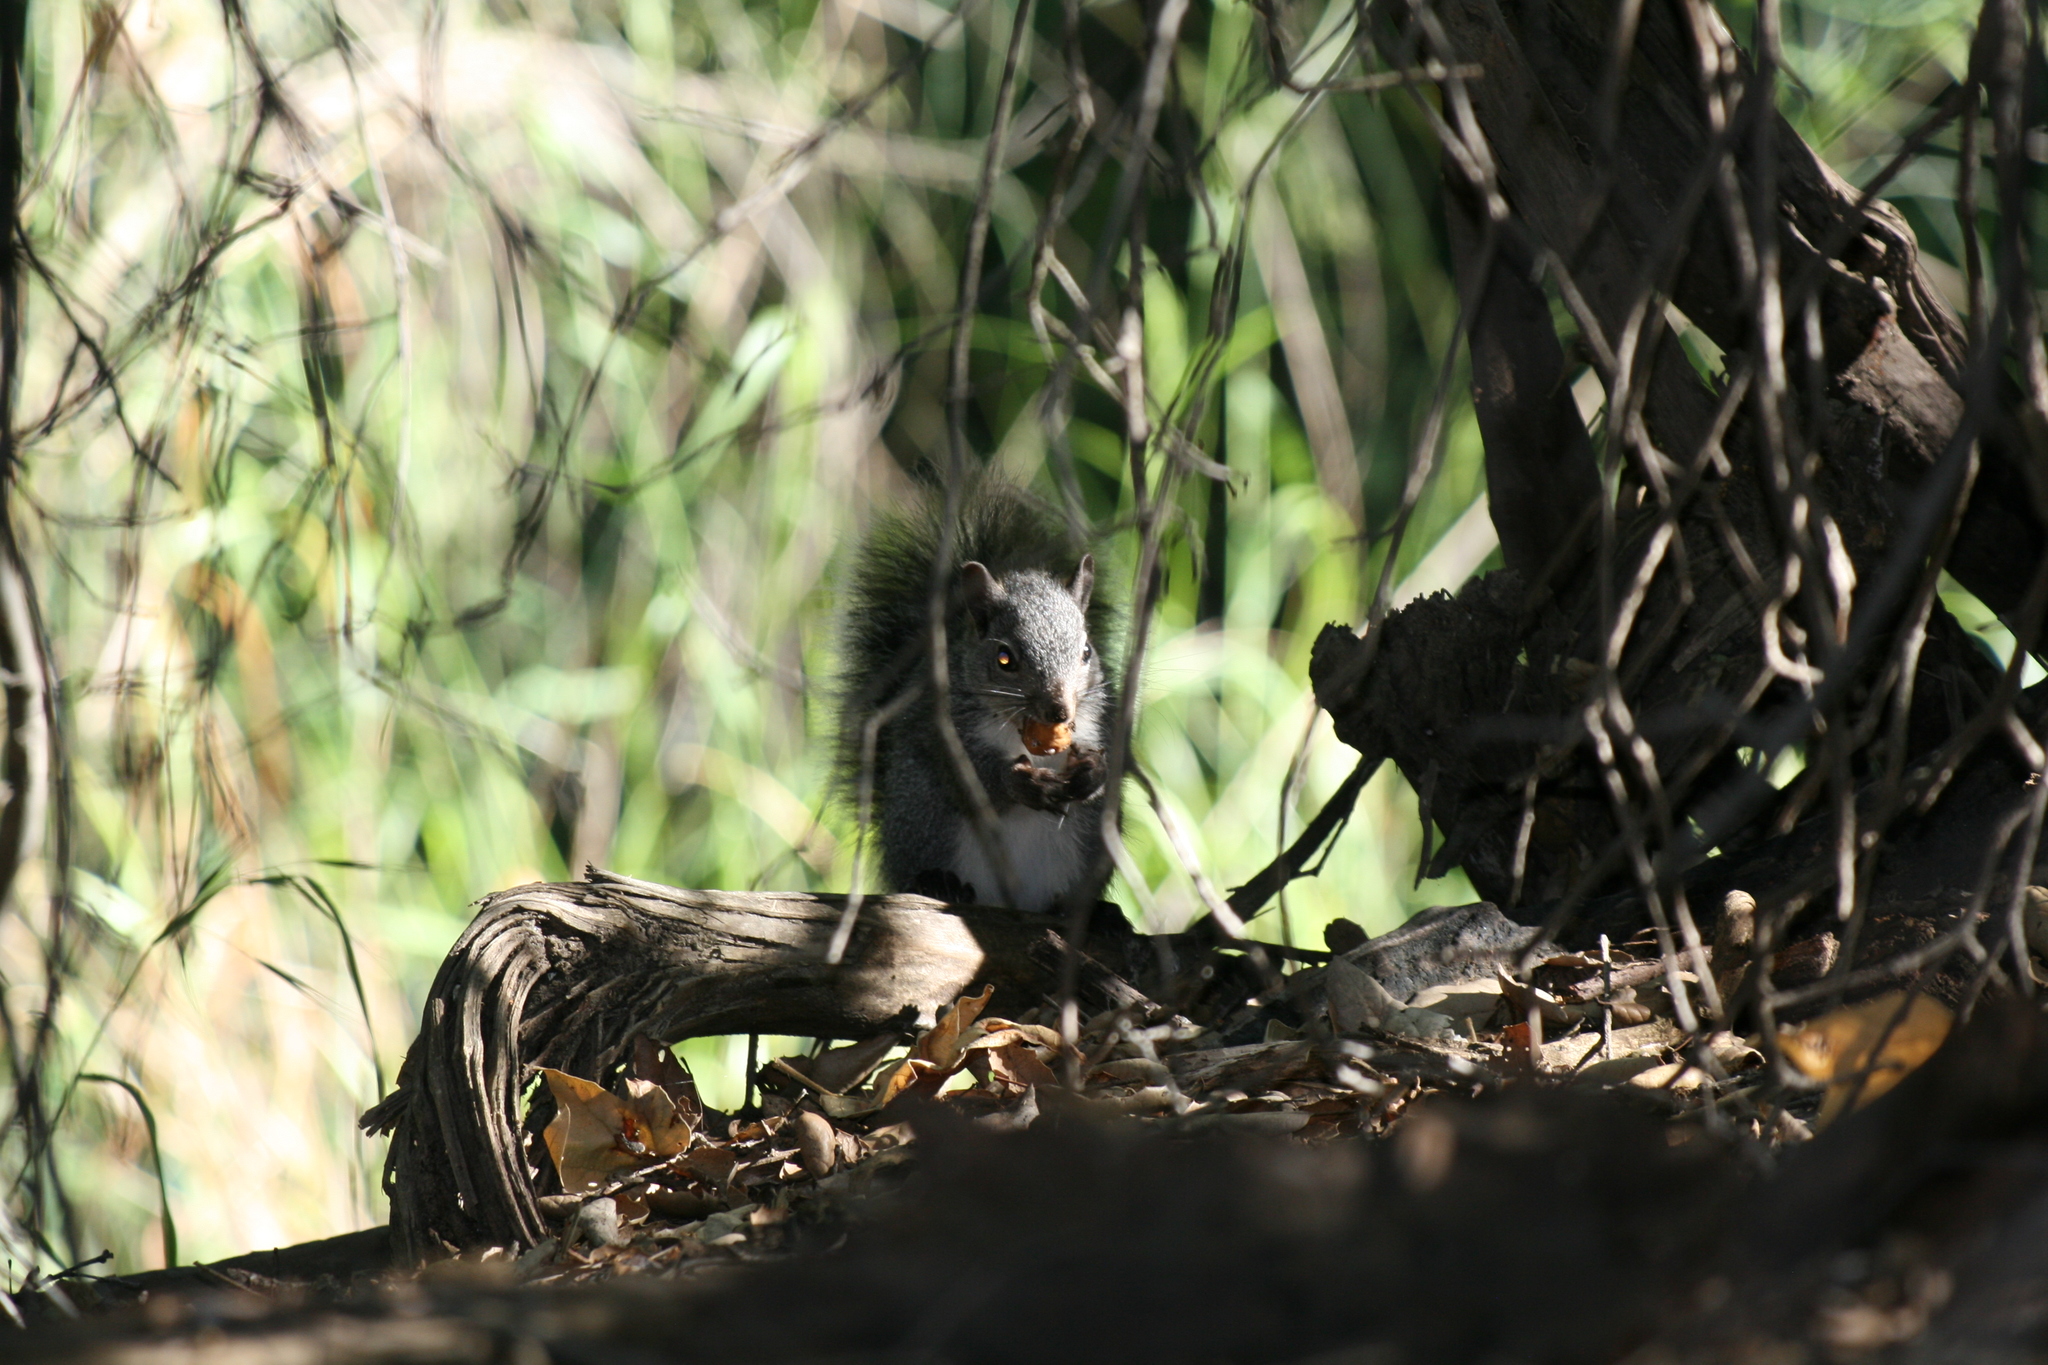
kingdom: Animalia
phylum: Chordata
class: Mammalia
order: Rodentia
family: Sciuridae
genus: Sciurus
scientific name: Sciurus griseus
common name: Western gray squirrel
